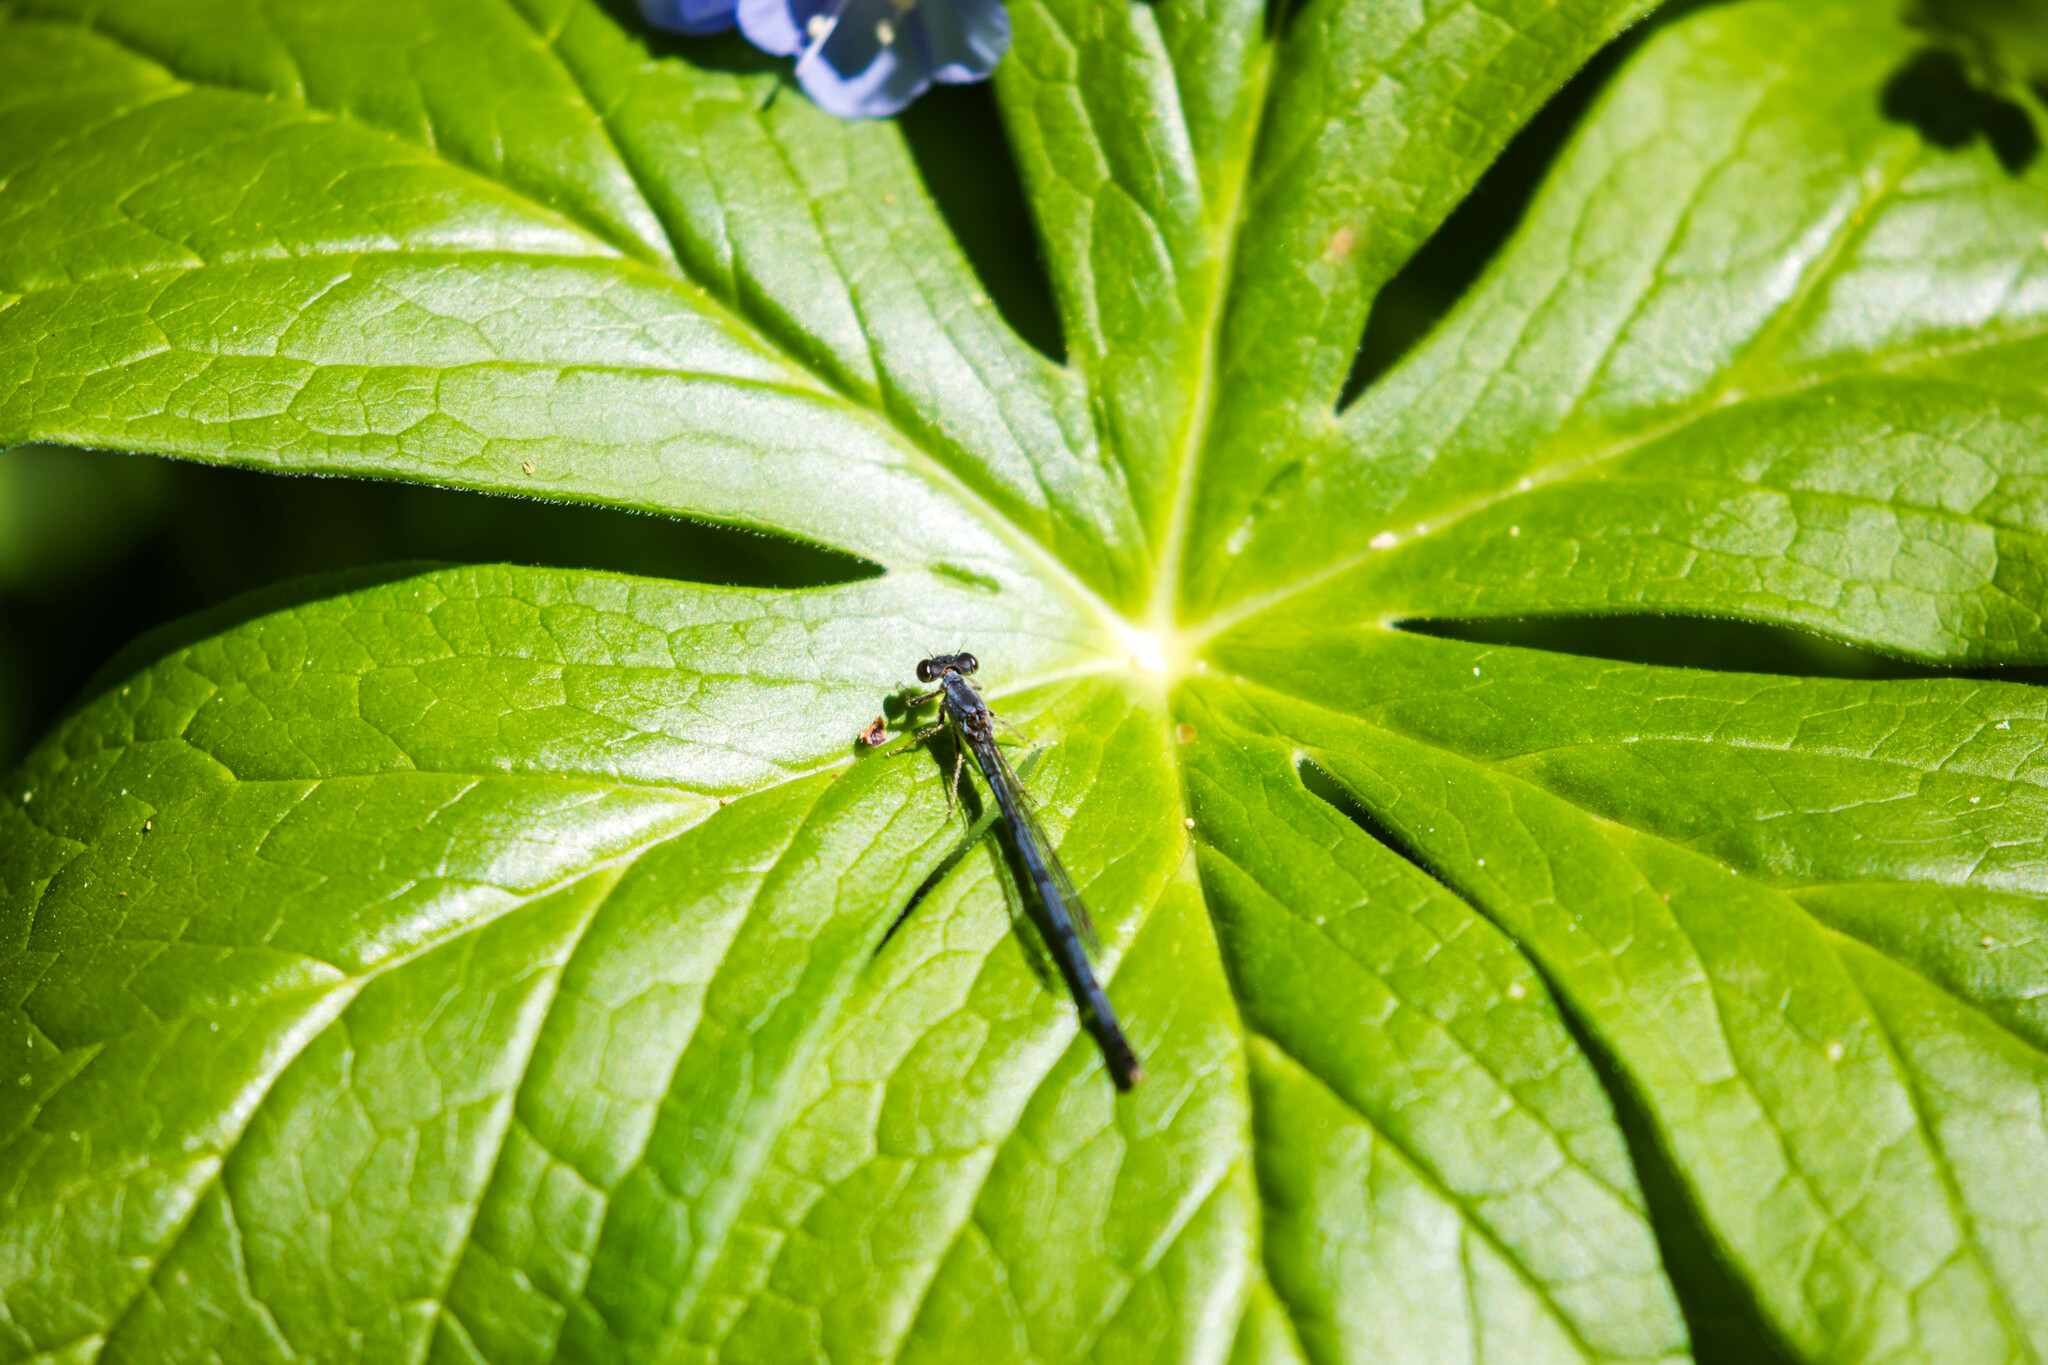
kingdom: Animalia
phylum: Arthropoda
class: Insecta
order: Odonata
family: Coenagrionidae
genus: Ischnura
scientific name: Ischnura posita
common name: Fragile forktail
